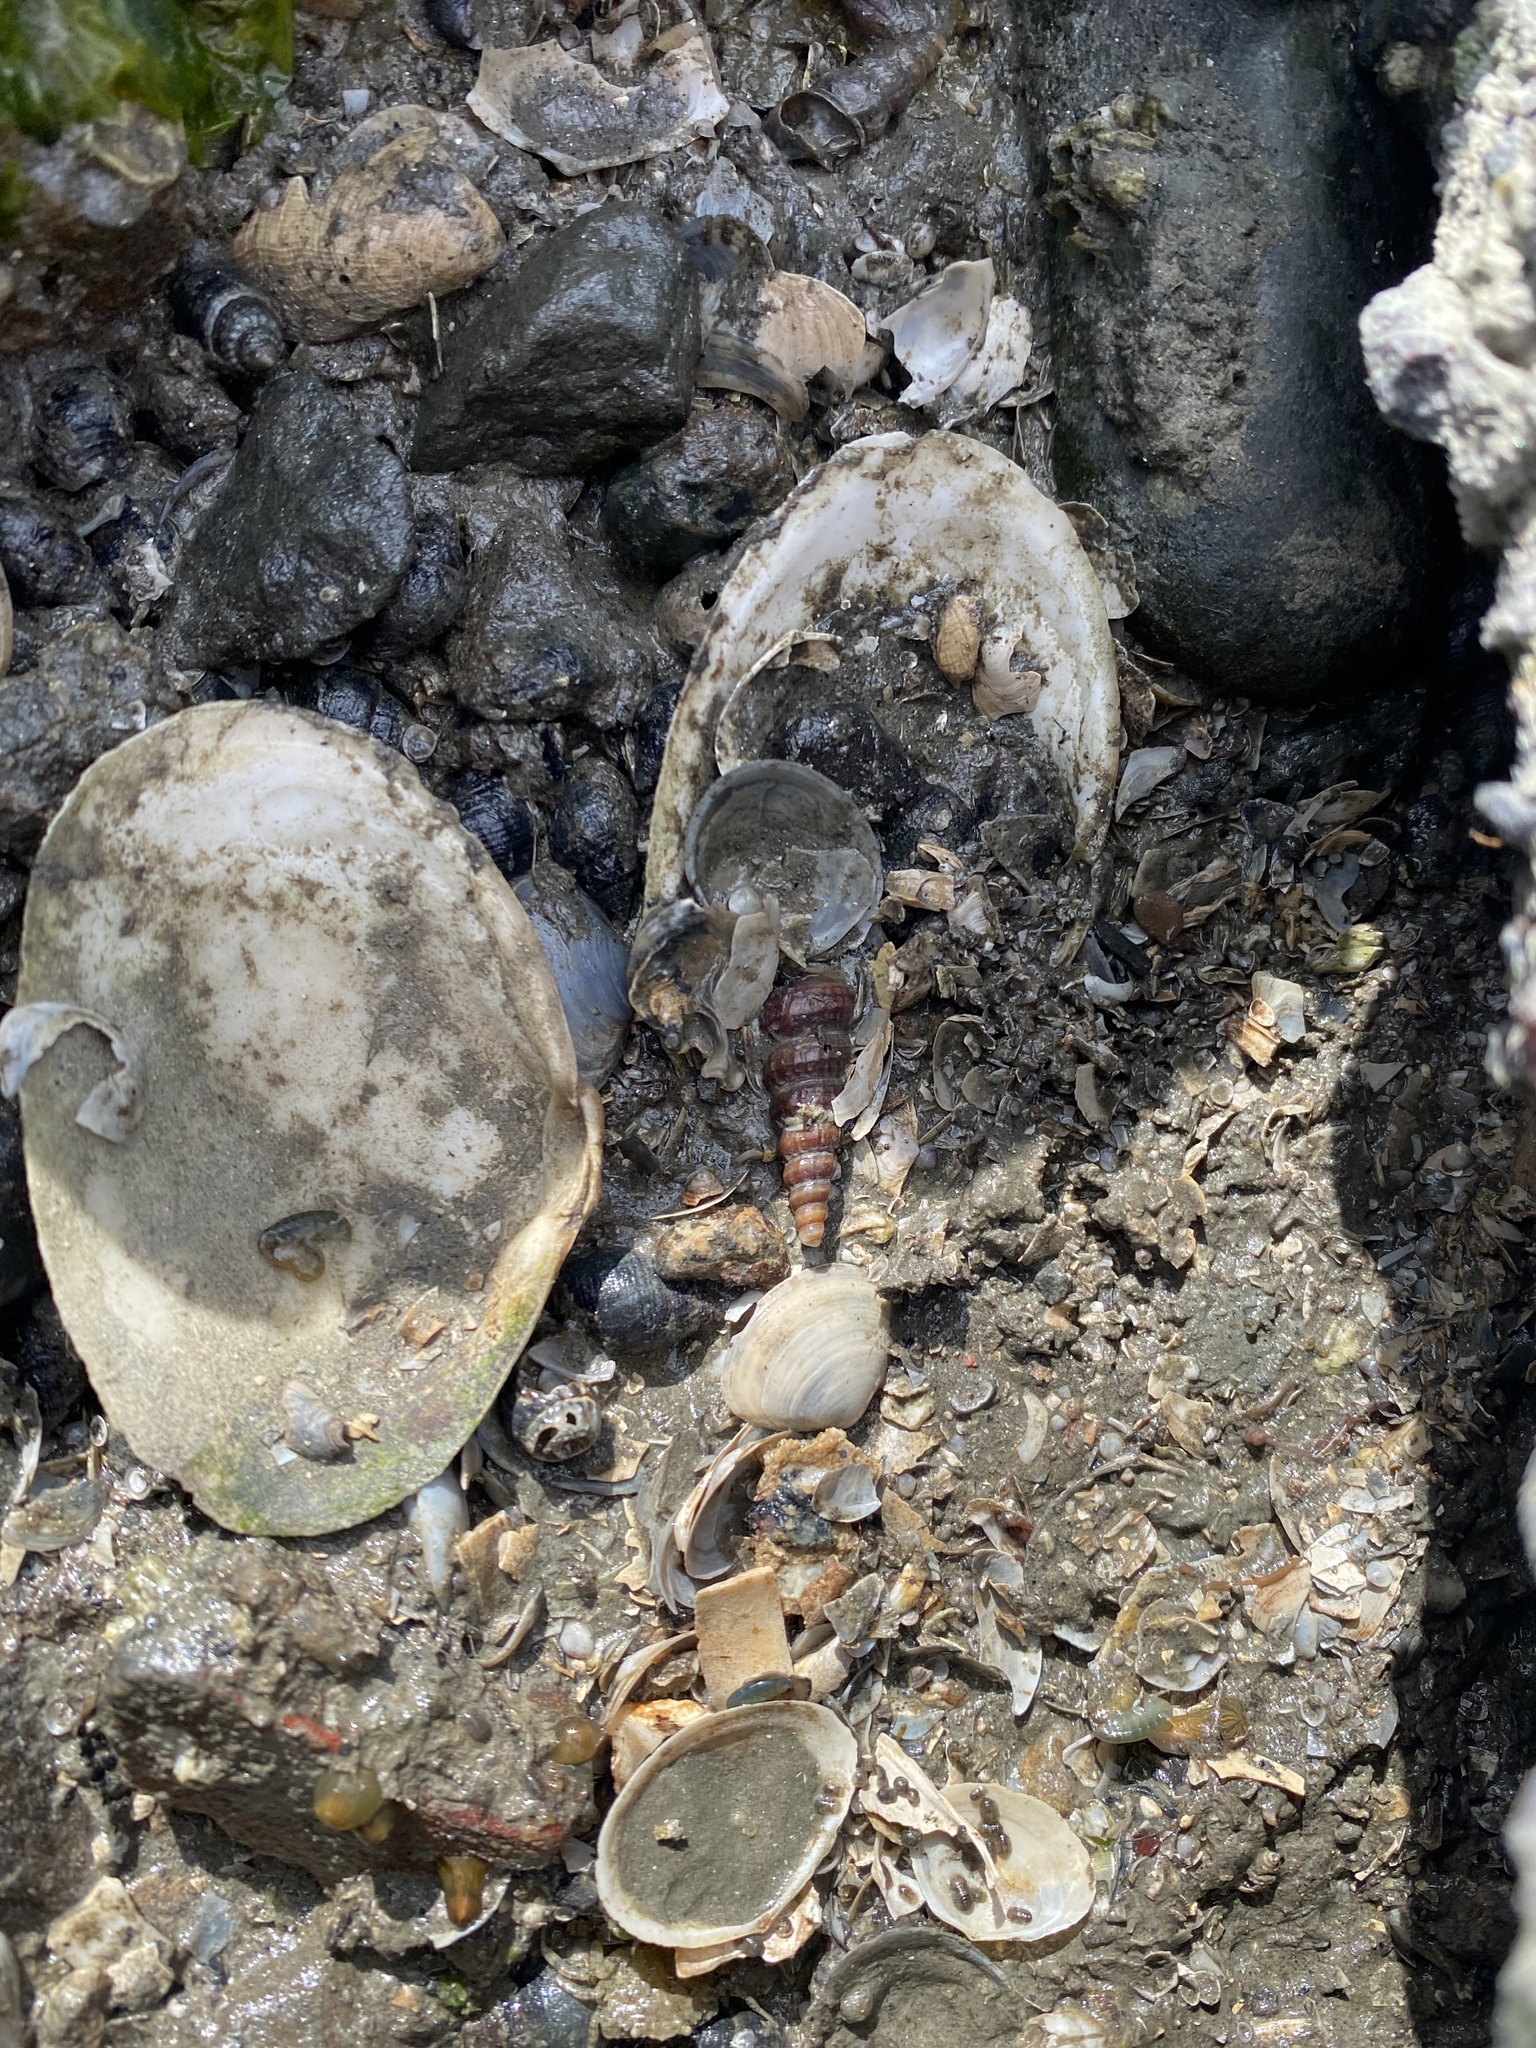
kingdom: Animalia
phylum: Mollusca
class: Gastropoda
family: Potamididae
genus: Cerithideopsis
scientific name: Cerithideopsis californica
